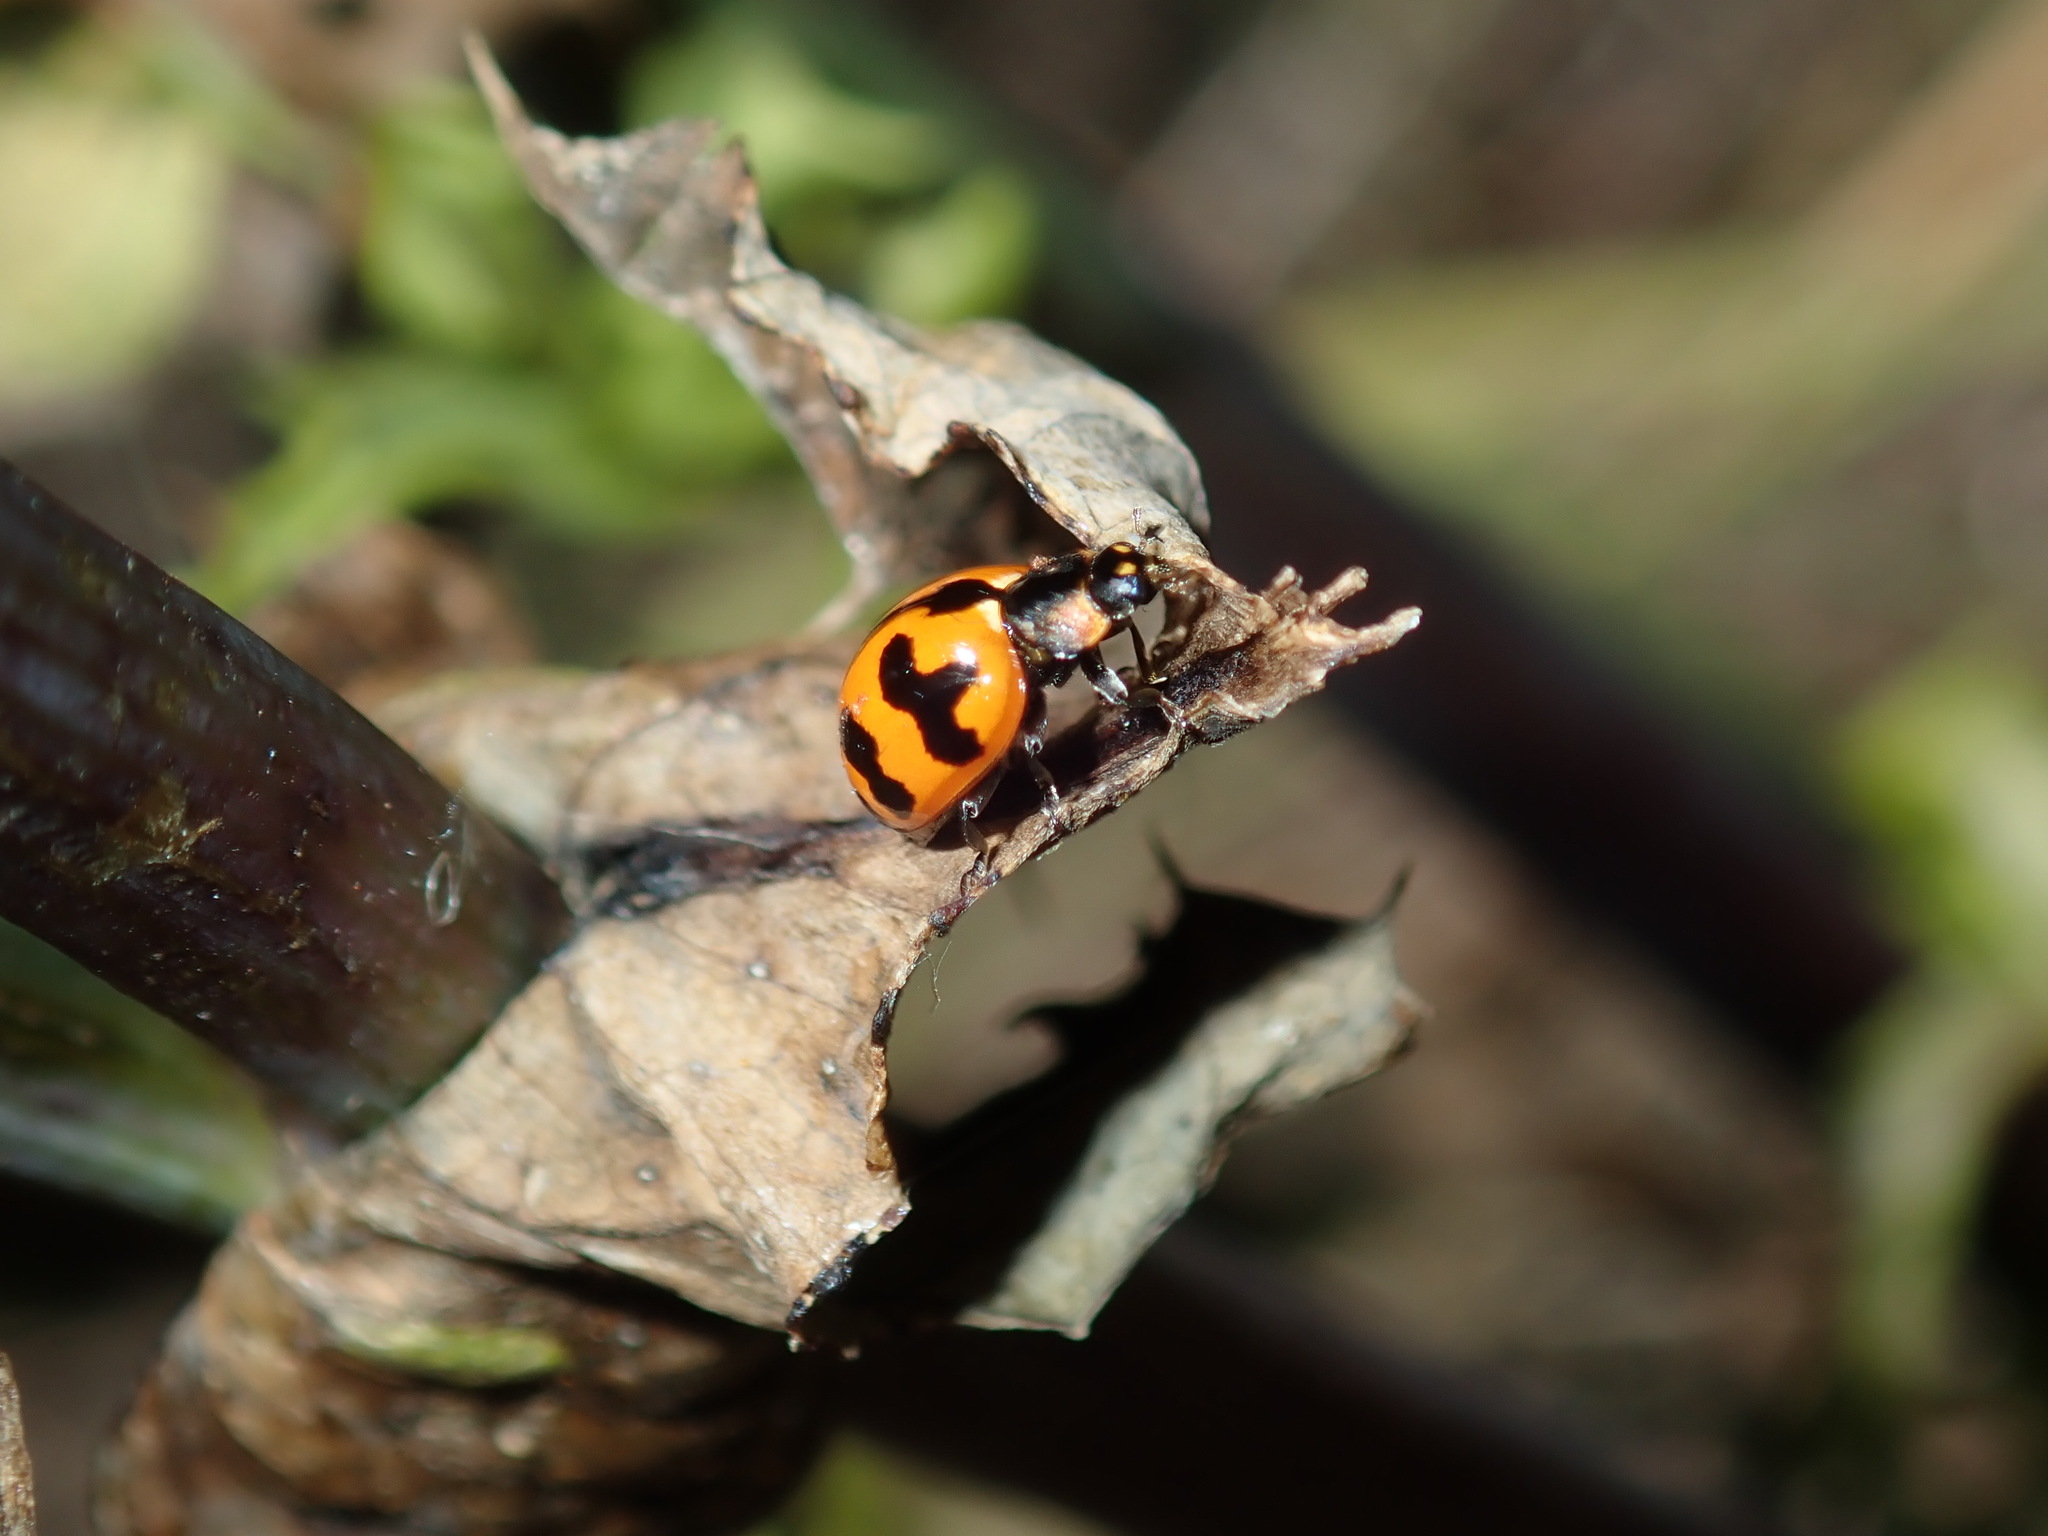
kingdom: Animalia
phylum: Arthropoda
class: Insecta
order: Coleoptera
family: Coccinellidae
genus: Coccinella
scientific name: Coccinella transversalis
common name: Transverse lady beetle
